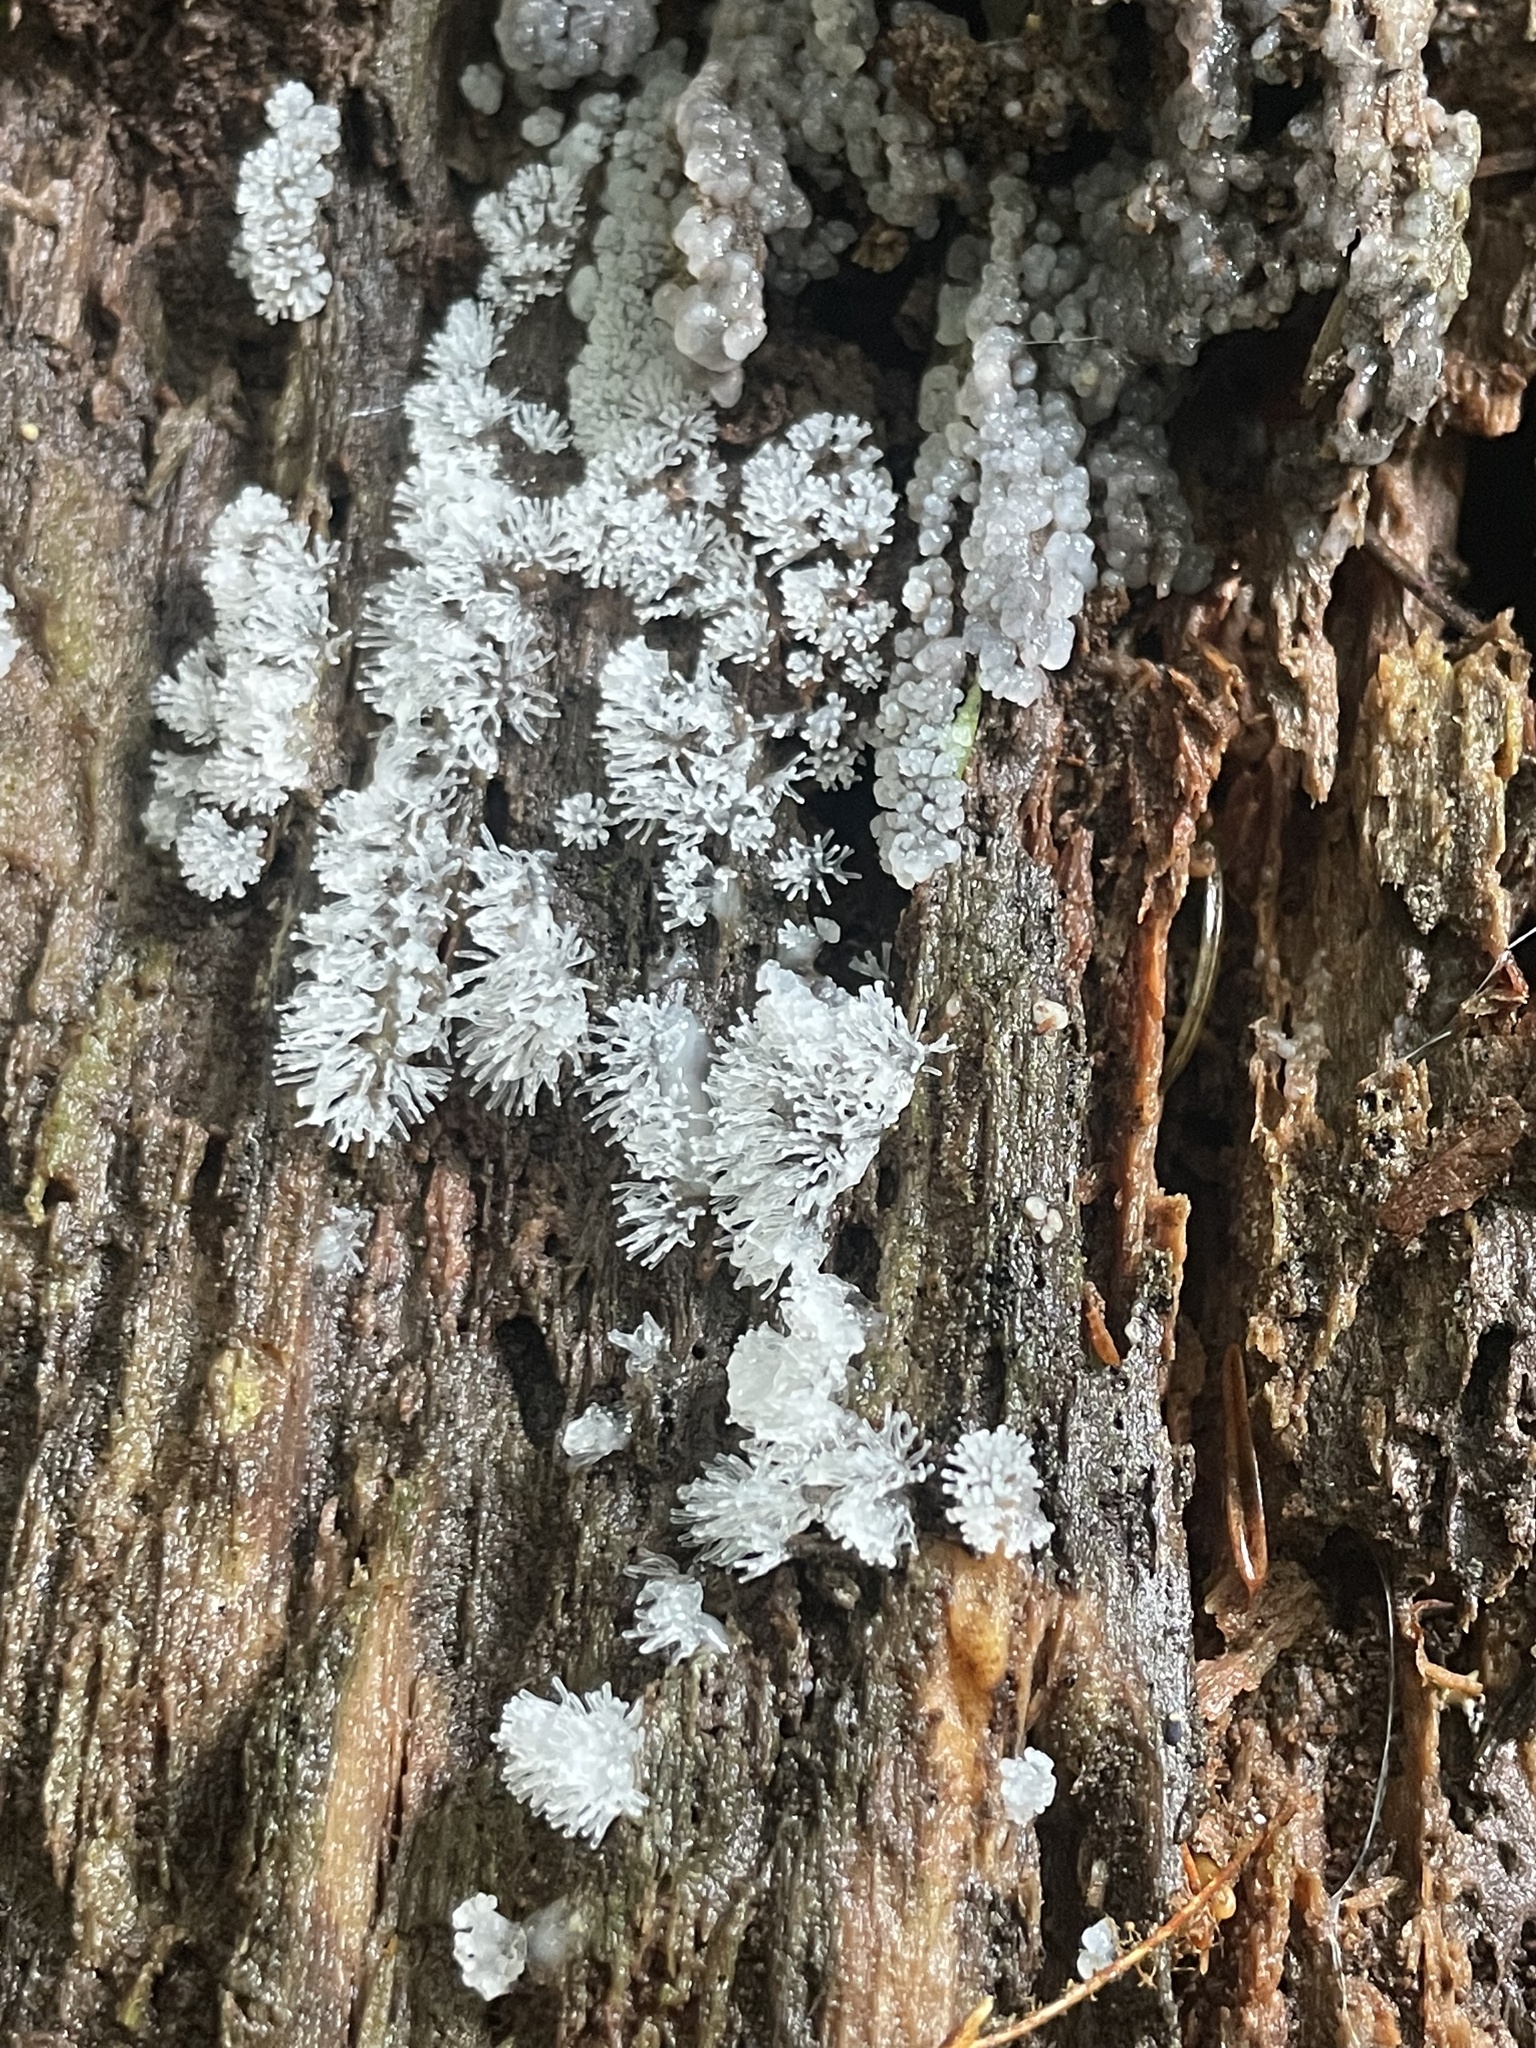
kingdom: Protozoa
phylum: Mycetozoa
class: Protosteliomycetes
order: Ceratiomyxales
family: Ceratiomyxaceae
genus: Ceratiomyxa
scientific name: Ceratiomyxa fruticulosa
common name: Honeycomb coral slime mold
